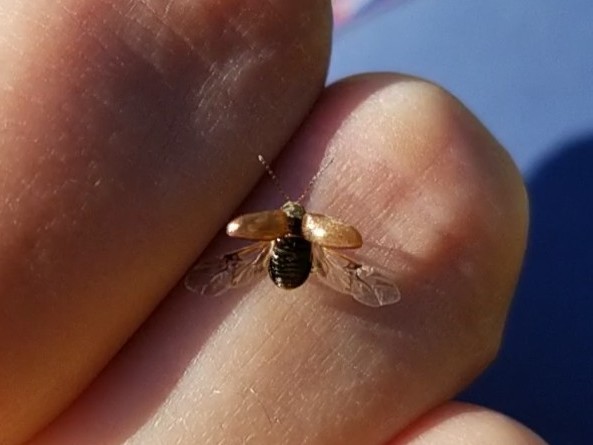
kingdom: Animalia
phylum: Arthropoda
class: Insecta
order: Coleoptera
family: Chrysomelidae
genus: Bromius
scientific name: Bromius obscurus
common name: Western grape rootworm
